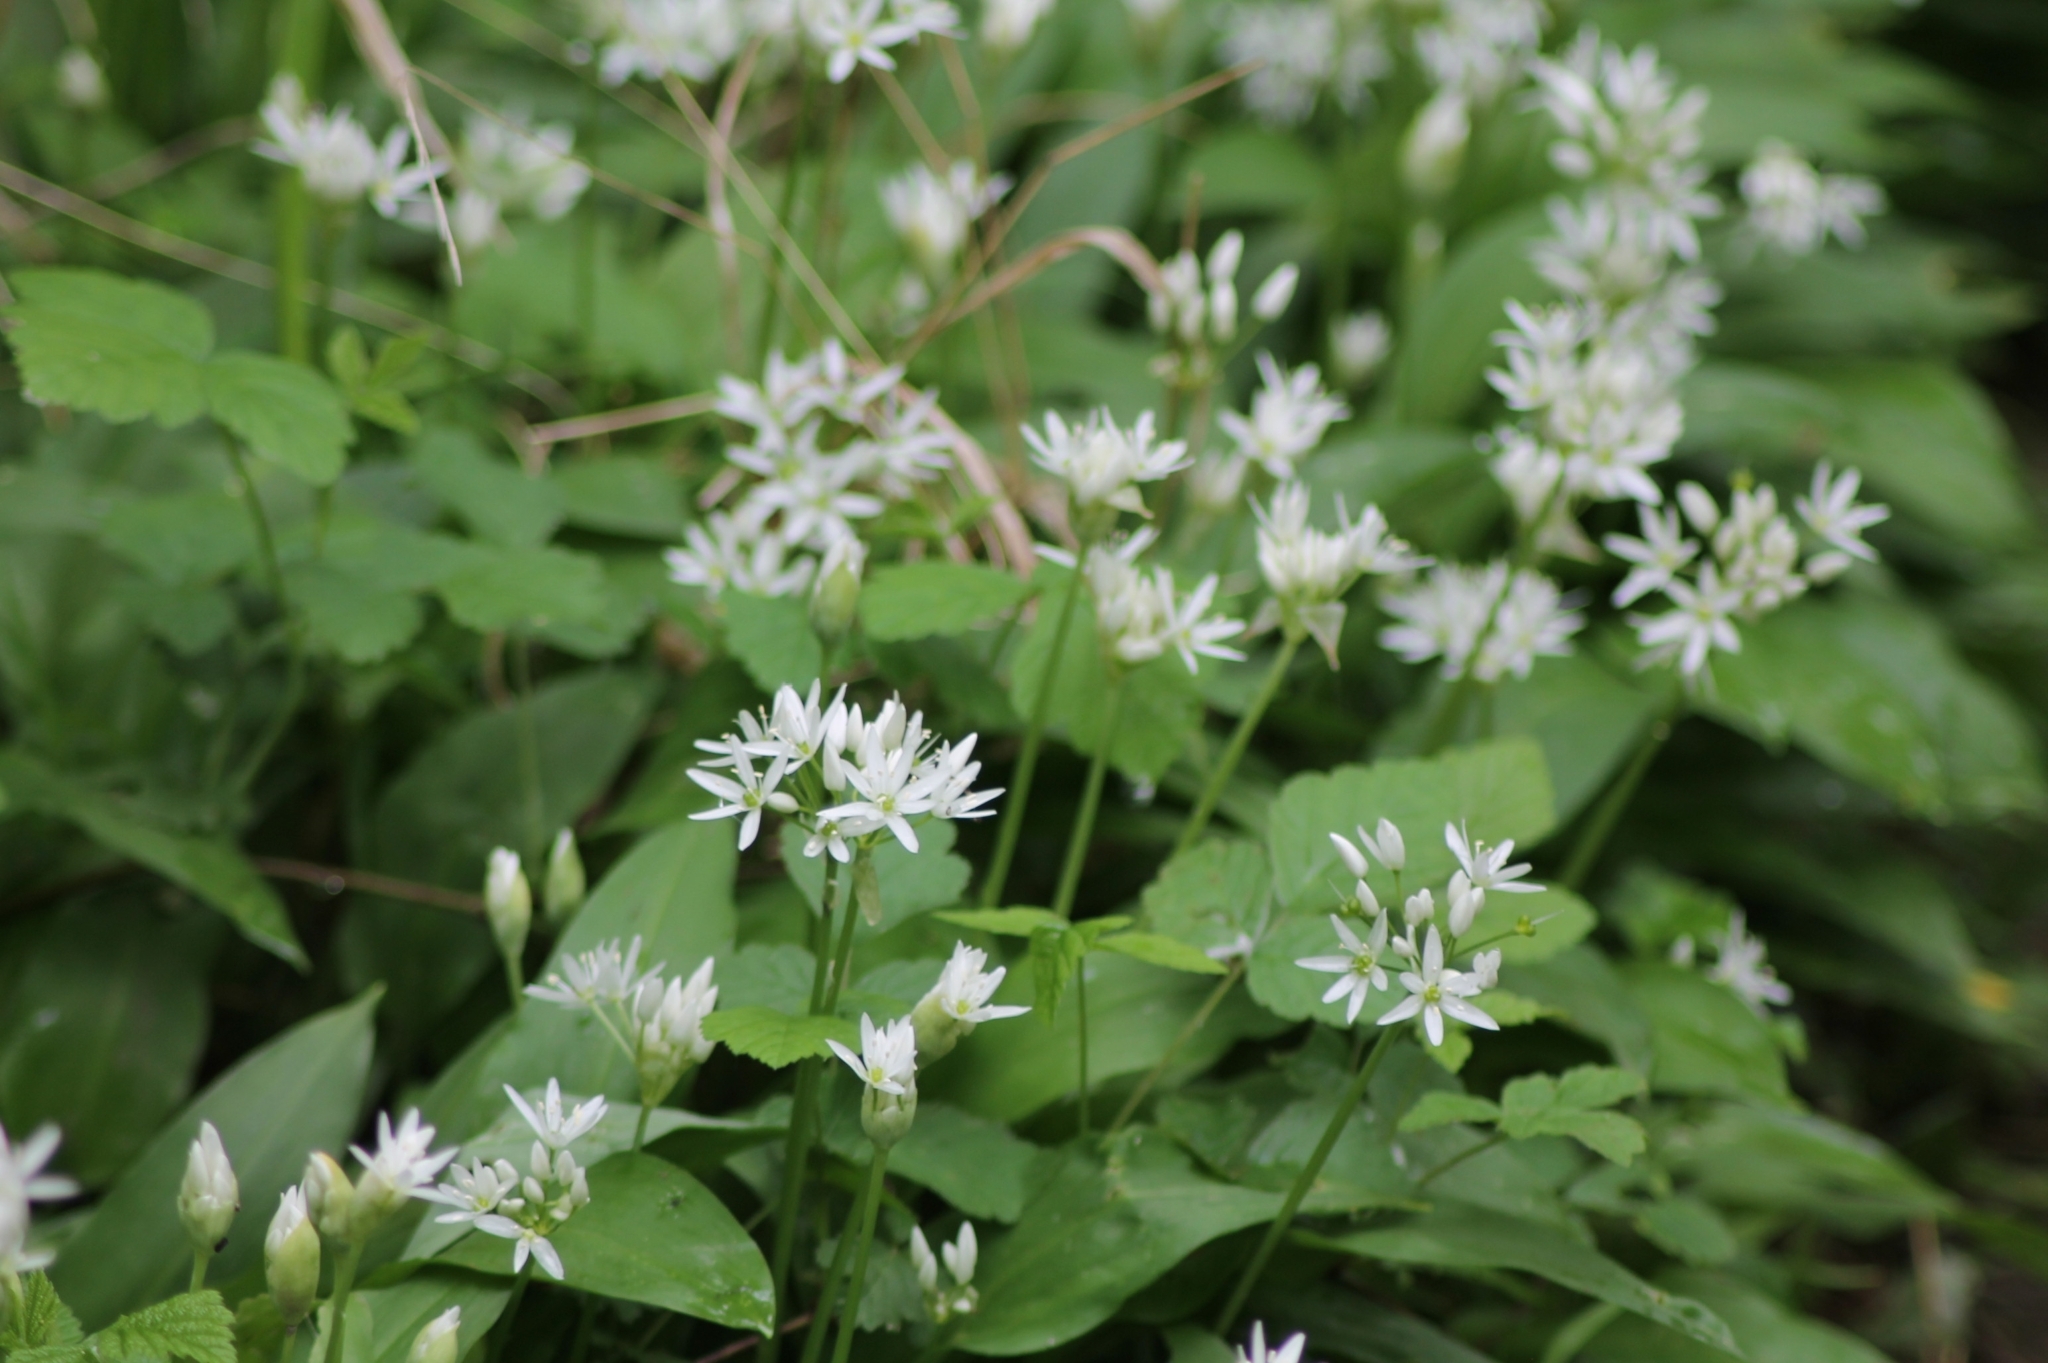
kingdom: Plantae
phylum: Tracheophyta
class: Liliopsida
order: Asparagales
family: Amaryllidaceae
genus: Allium
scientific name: Allium ursinum
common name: Ramsons
